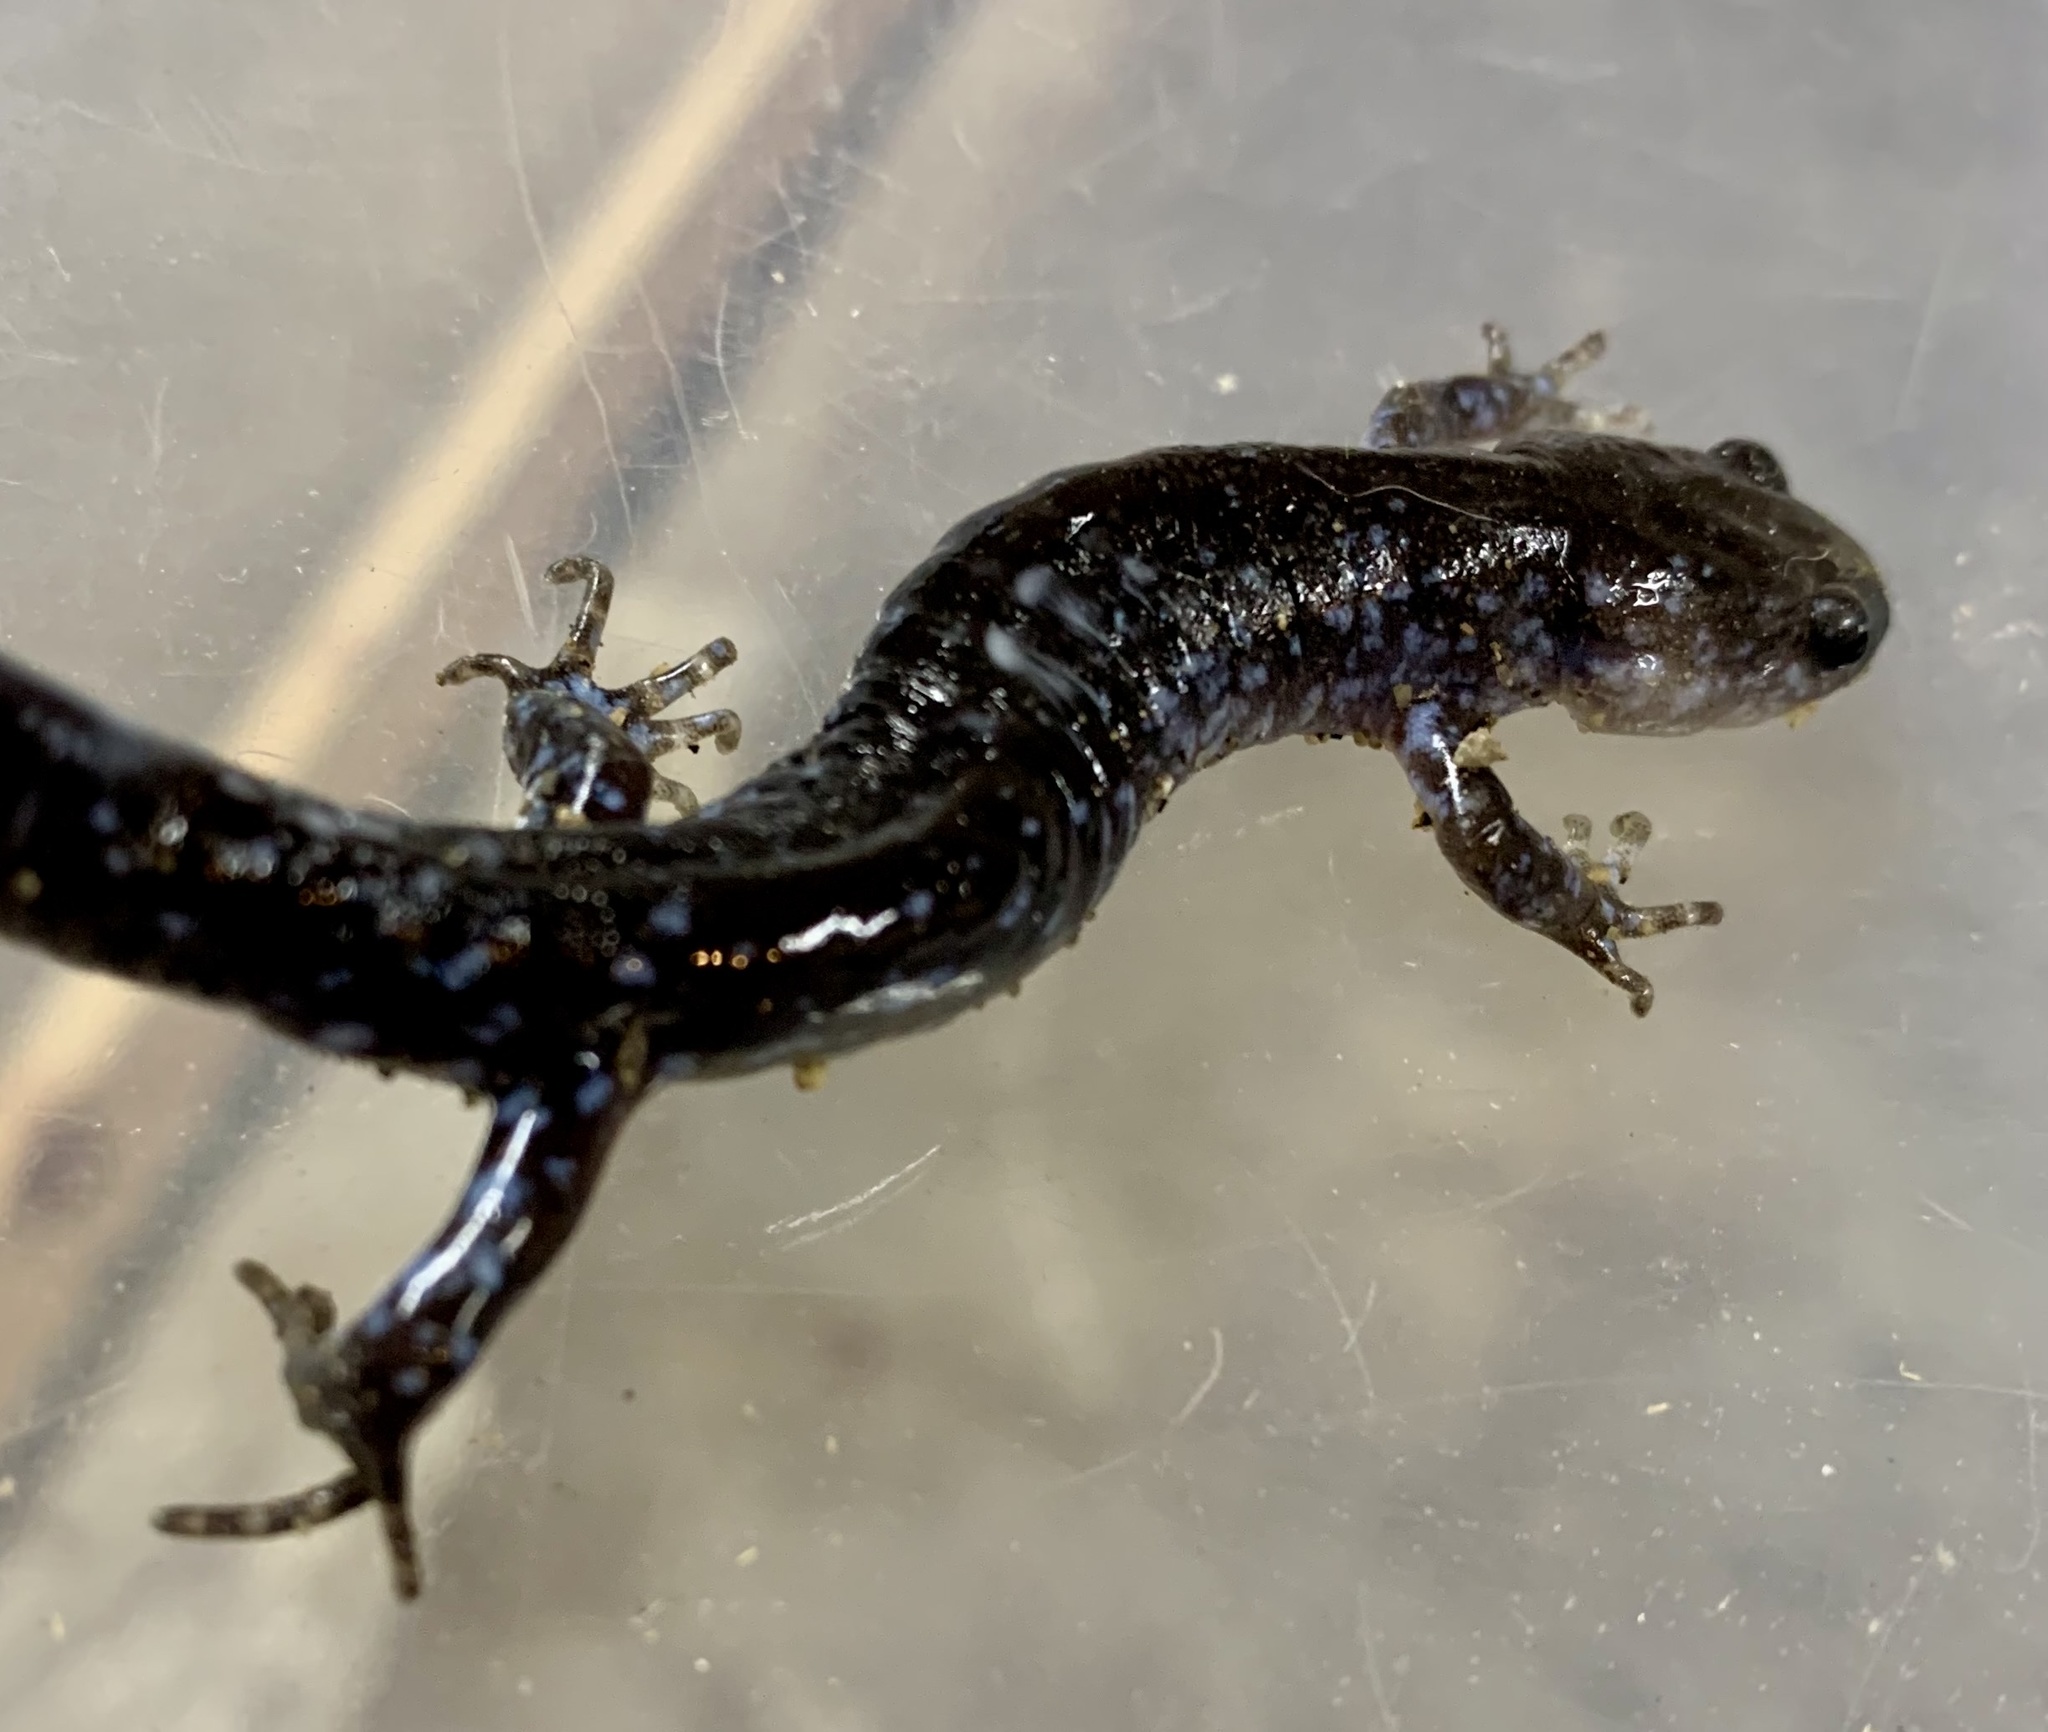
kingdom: Animalia
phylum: Chordata
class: Amphibia
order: Caudata
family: Ambystomatidae
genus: Ambystoma
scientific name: Ambystoma laterale
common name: Blue-spotted salamander
